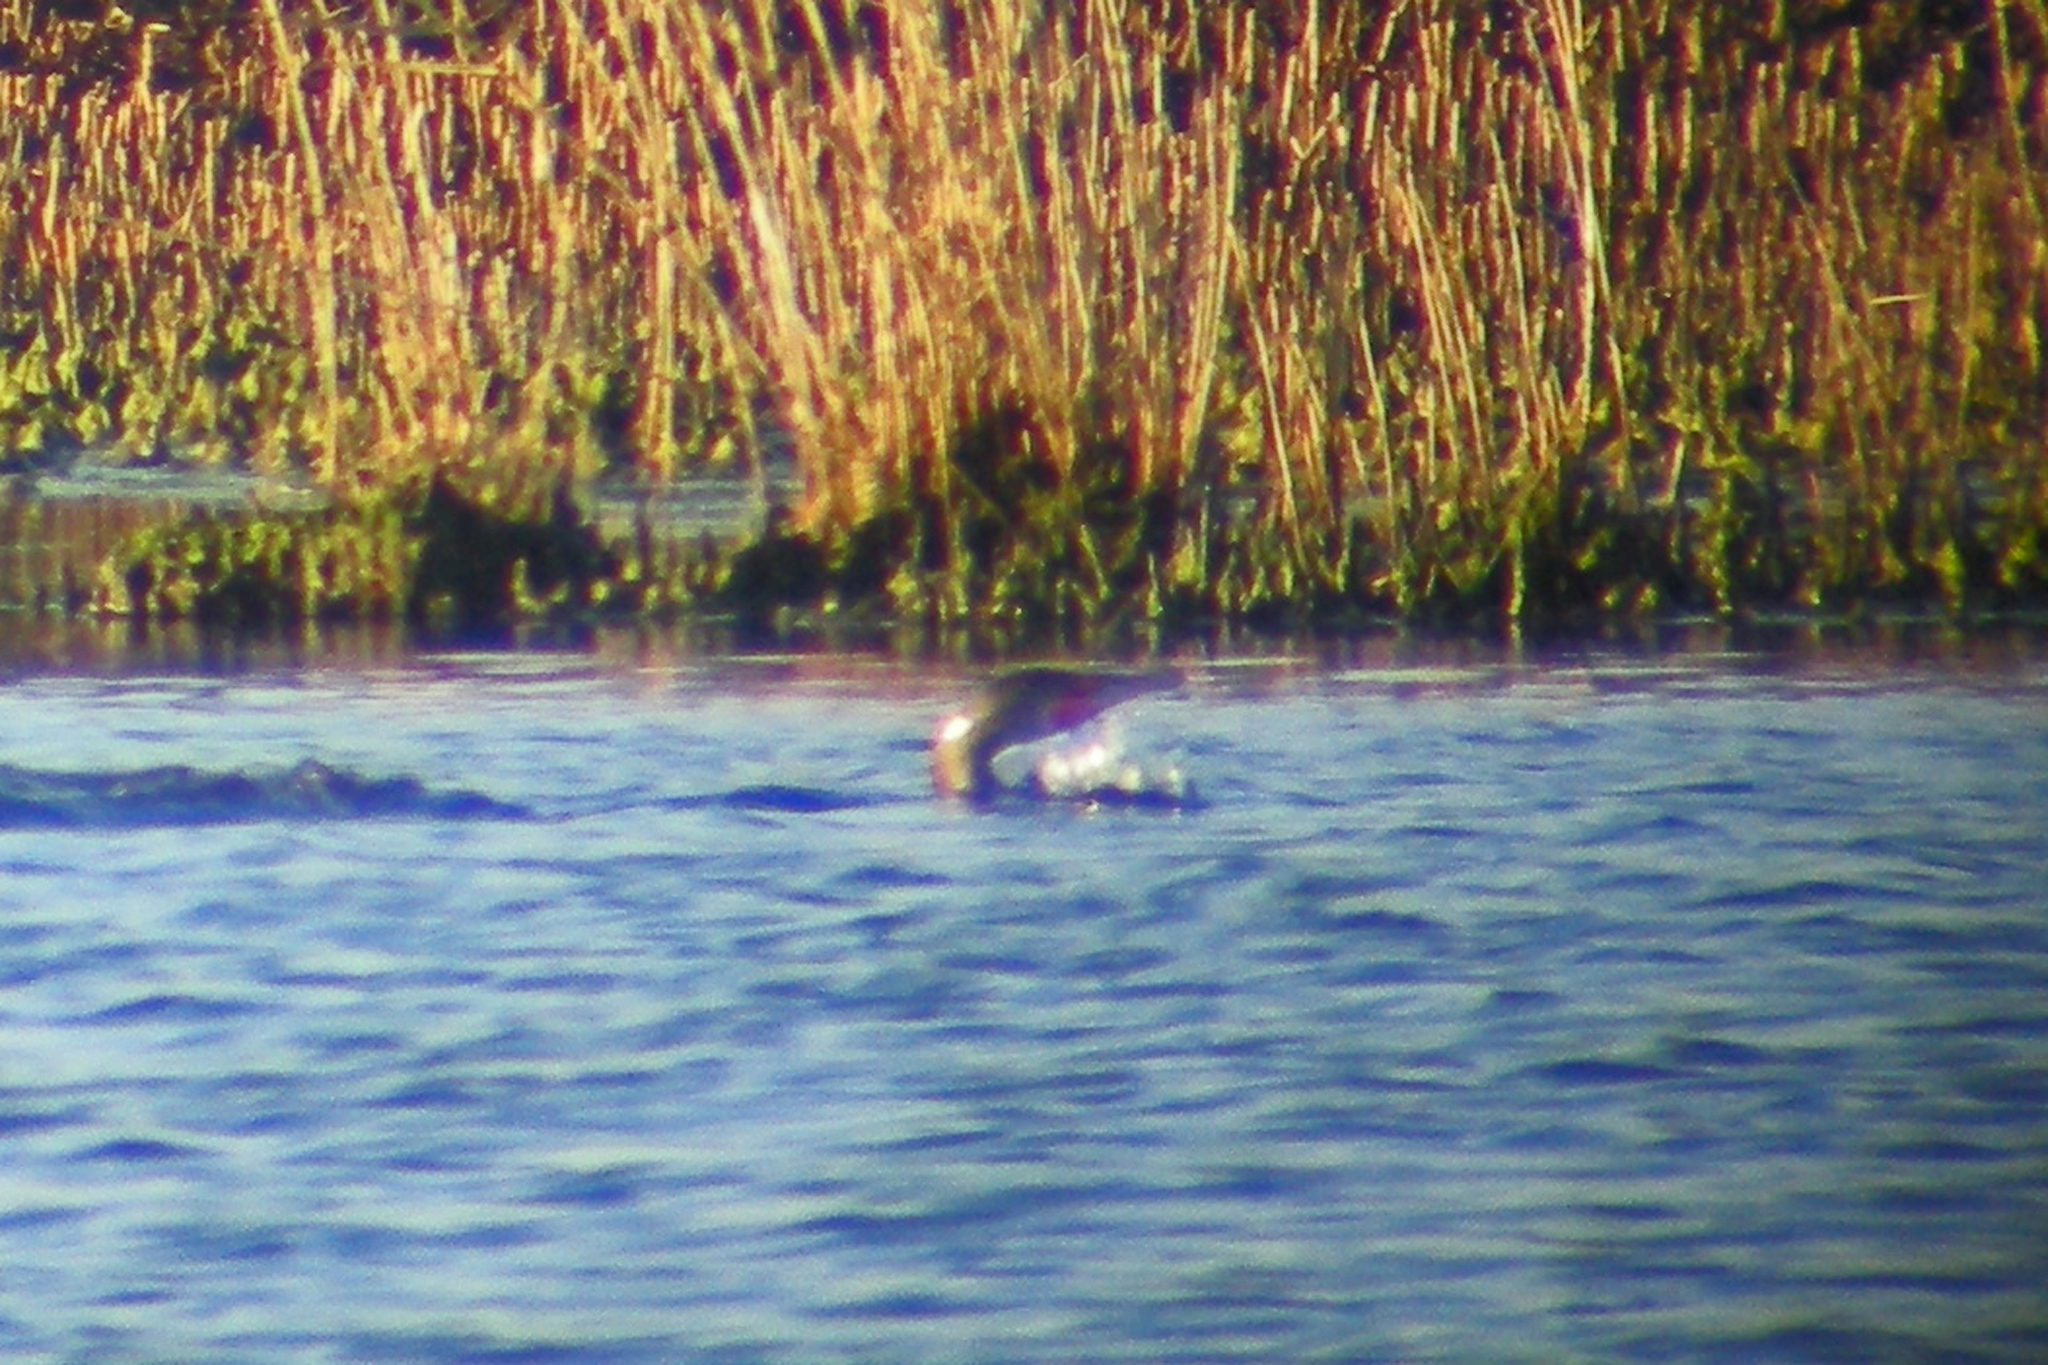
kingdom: Animalia
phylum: Chordata
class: Aves
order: Suliformes
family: Phalacrocoracidae
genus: Phalacrocorax
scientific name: Phalacrocorax auritus
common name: Double-crested cormorant
